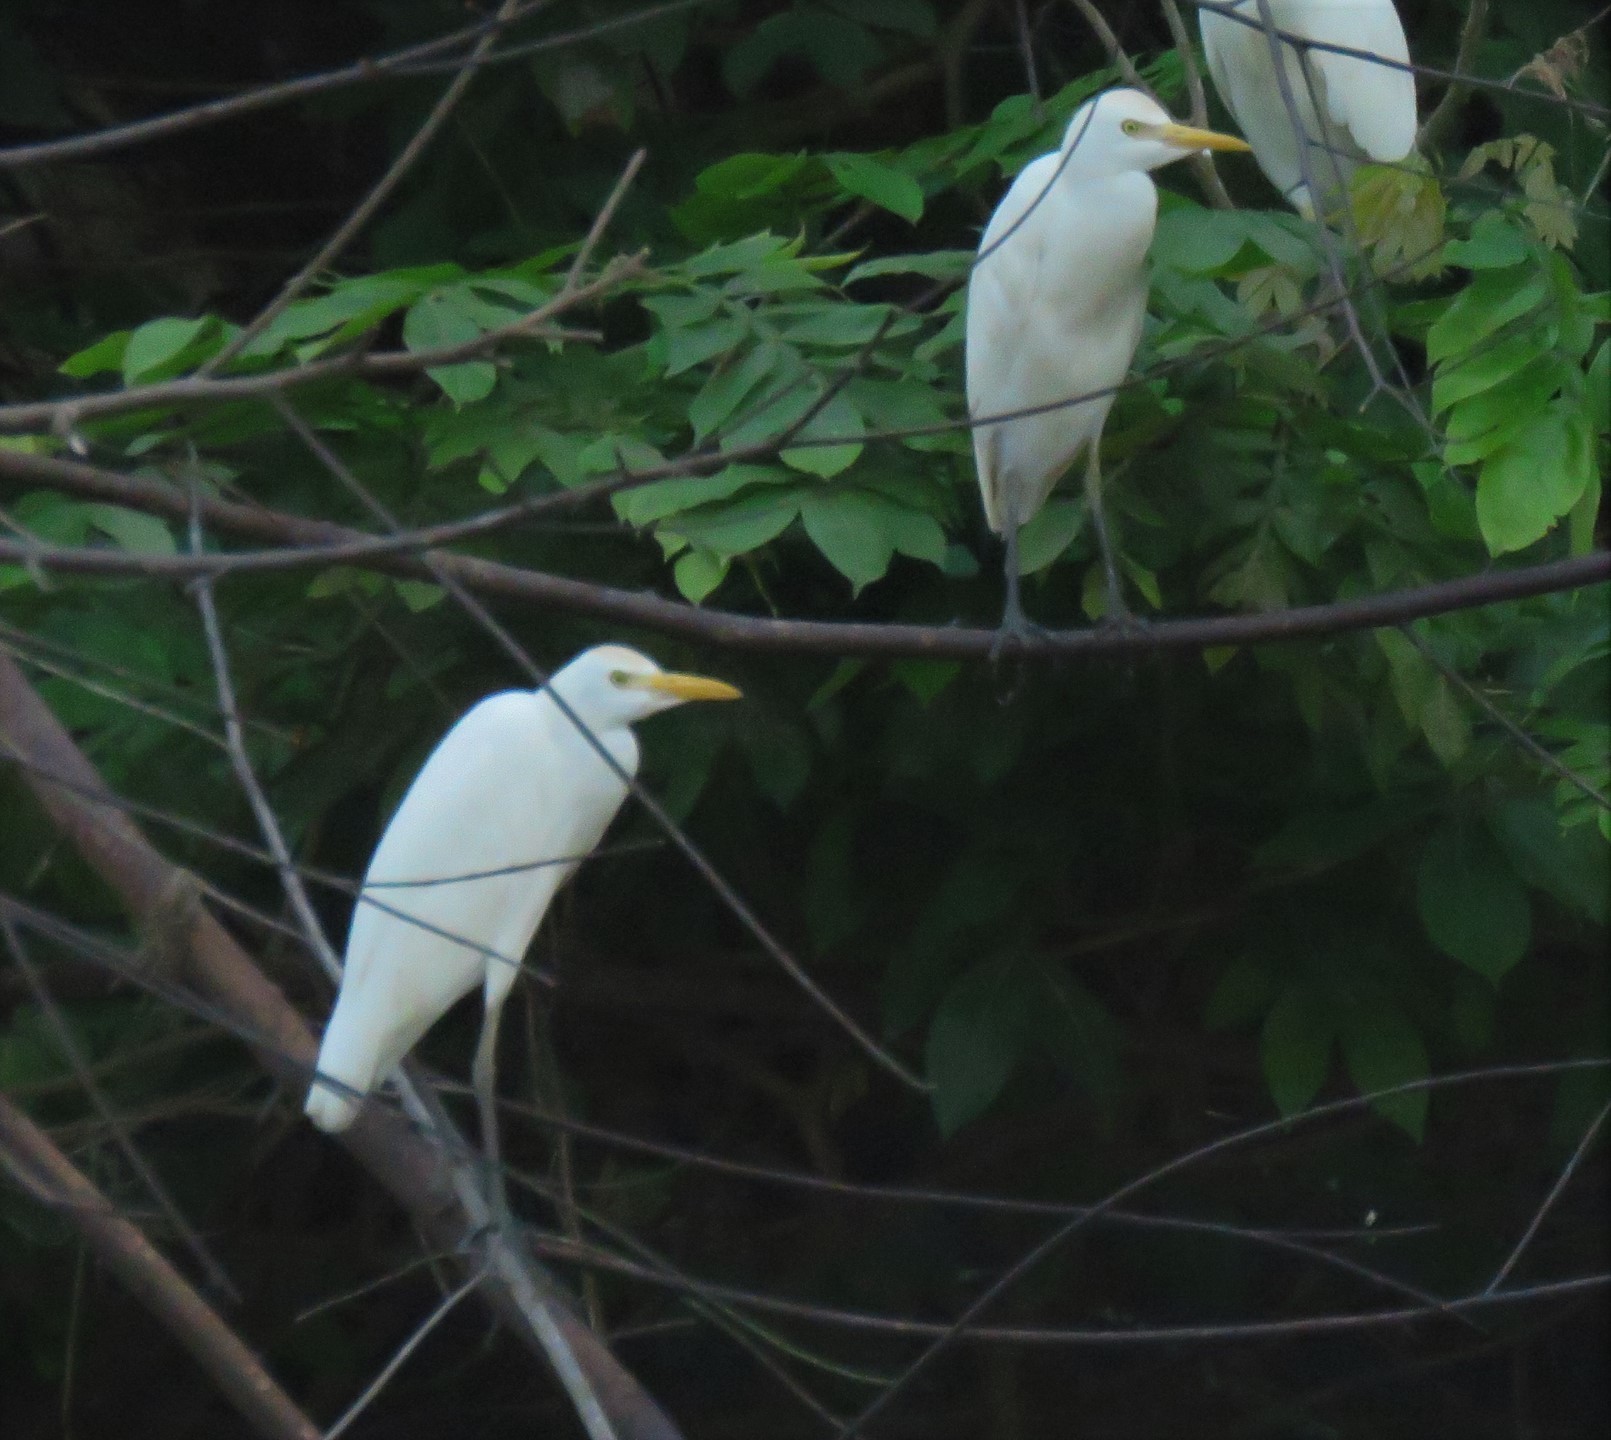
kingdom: Animalia
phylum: Chordata
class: Aves
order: Pelecaniformes
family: Ardeidae
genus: Bubulcus
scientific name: Bubulcus ibis
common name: Cattle egret
